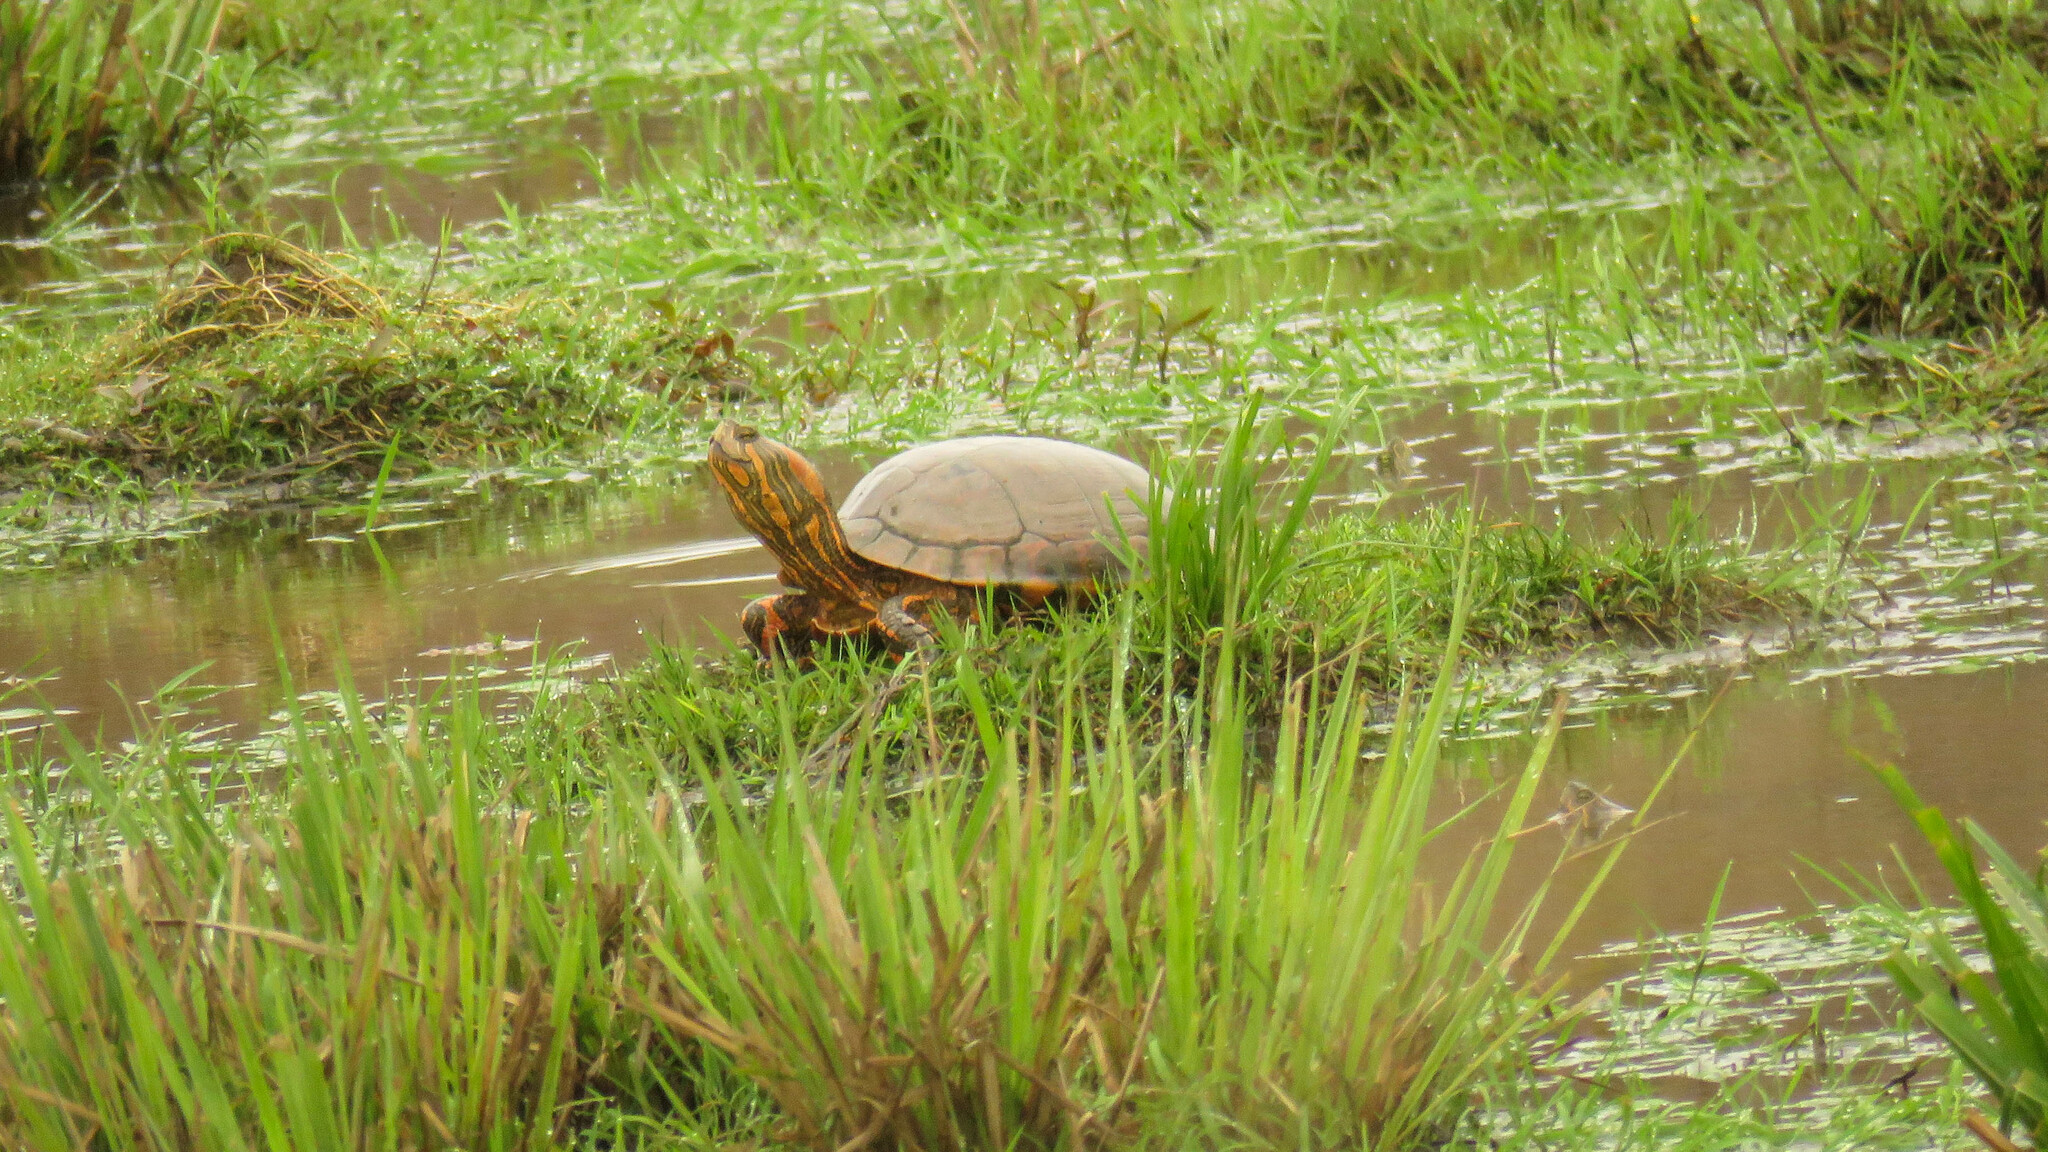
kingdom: Animalia
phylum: Chordata
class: Testudines
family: Emydidae
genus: Trachemys
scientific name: Trachemys dorbigni
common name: Black-bellied slider
